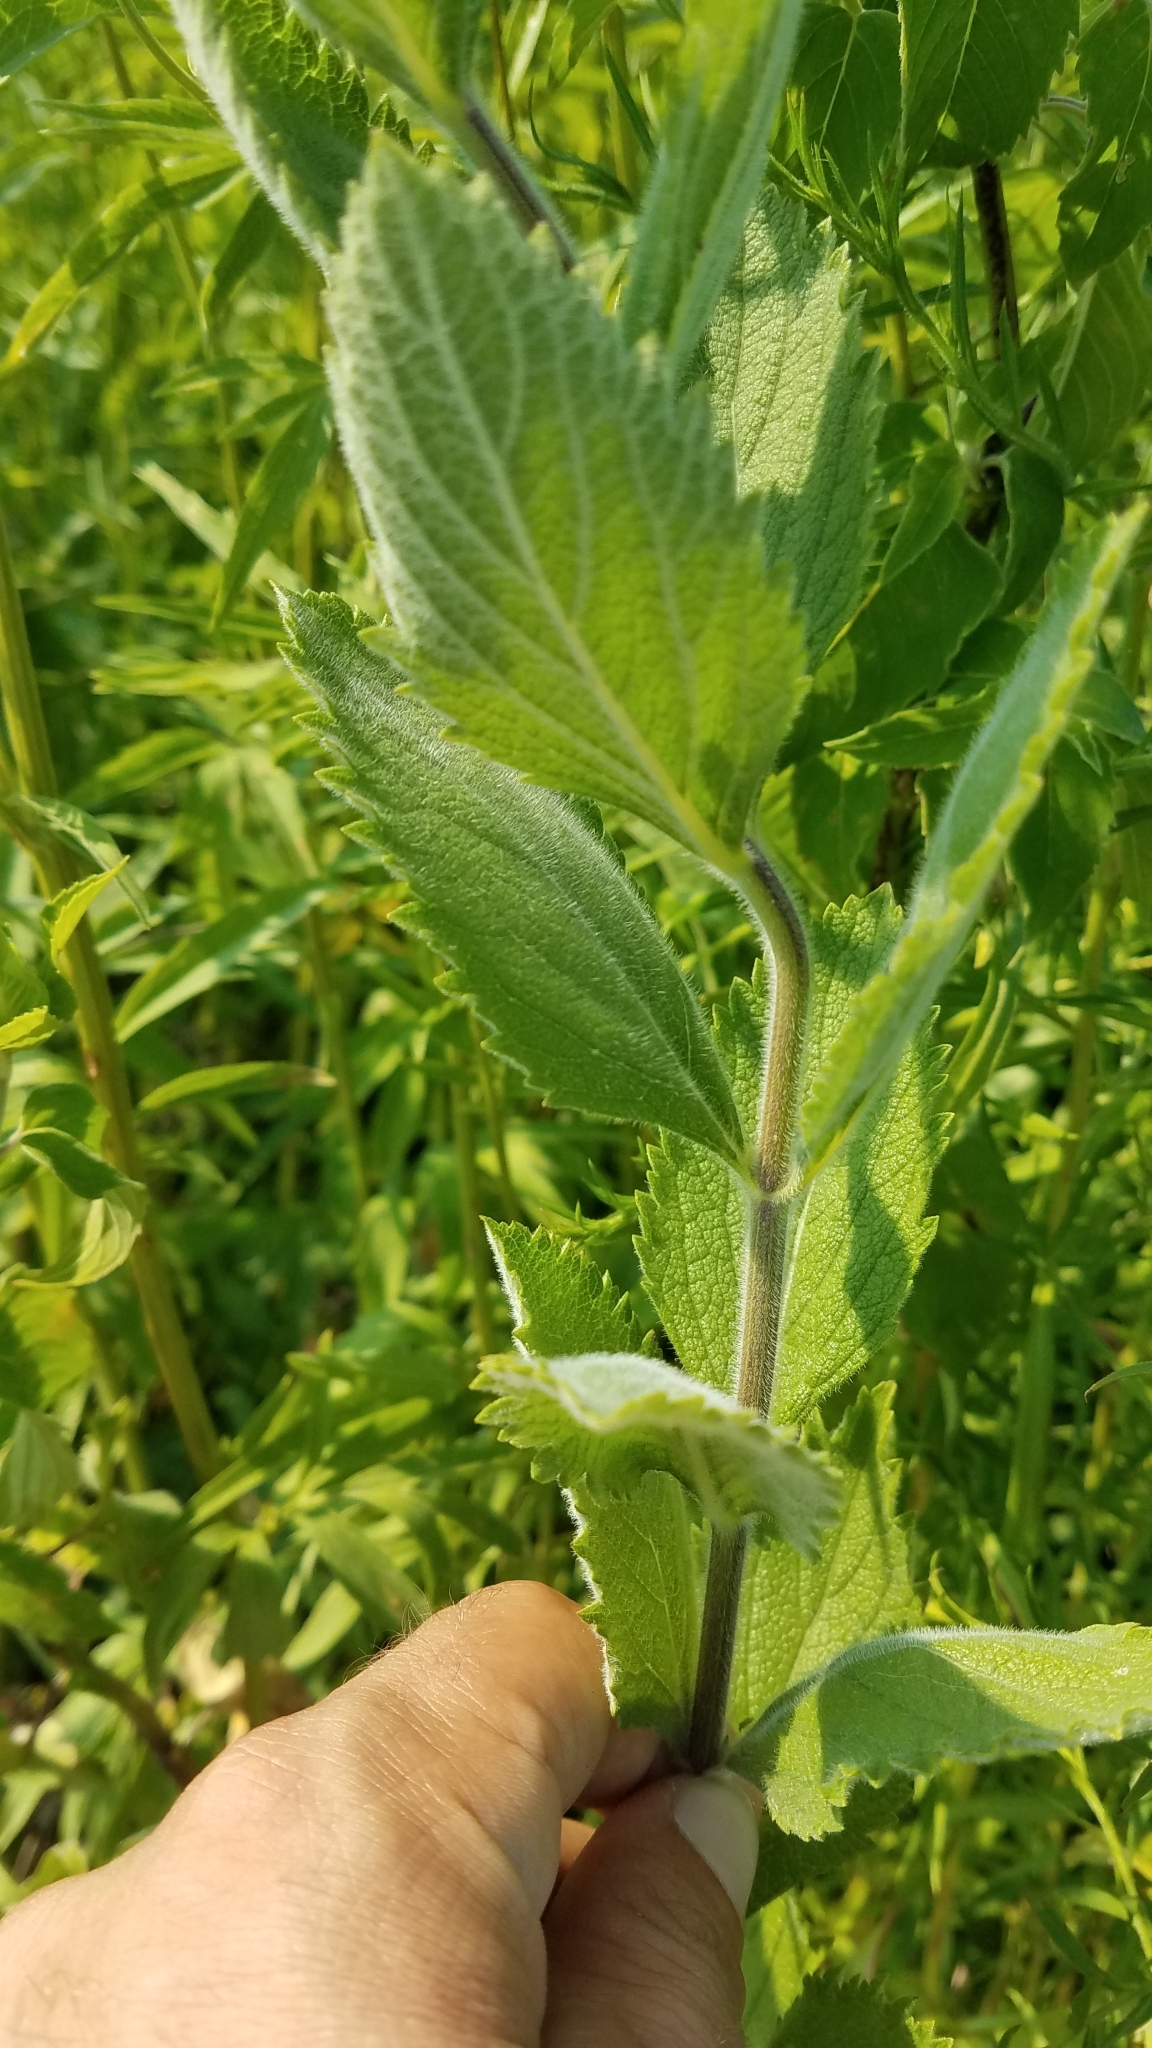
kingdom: Plantae
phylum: Tracheophyta
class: Magnoliopsida
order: Lamiales
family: Verbenaceae
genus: Verbena
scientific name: Verbena stricta
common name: Hoary vervain
